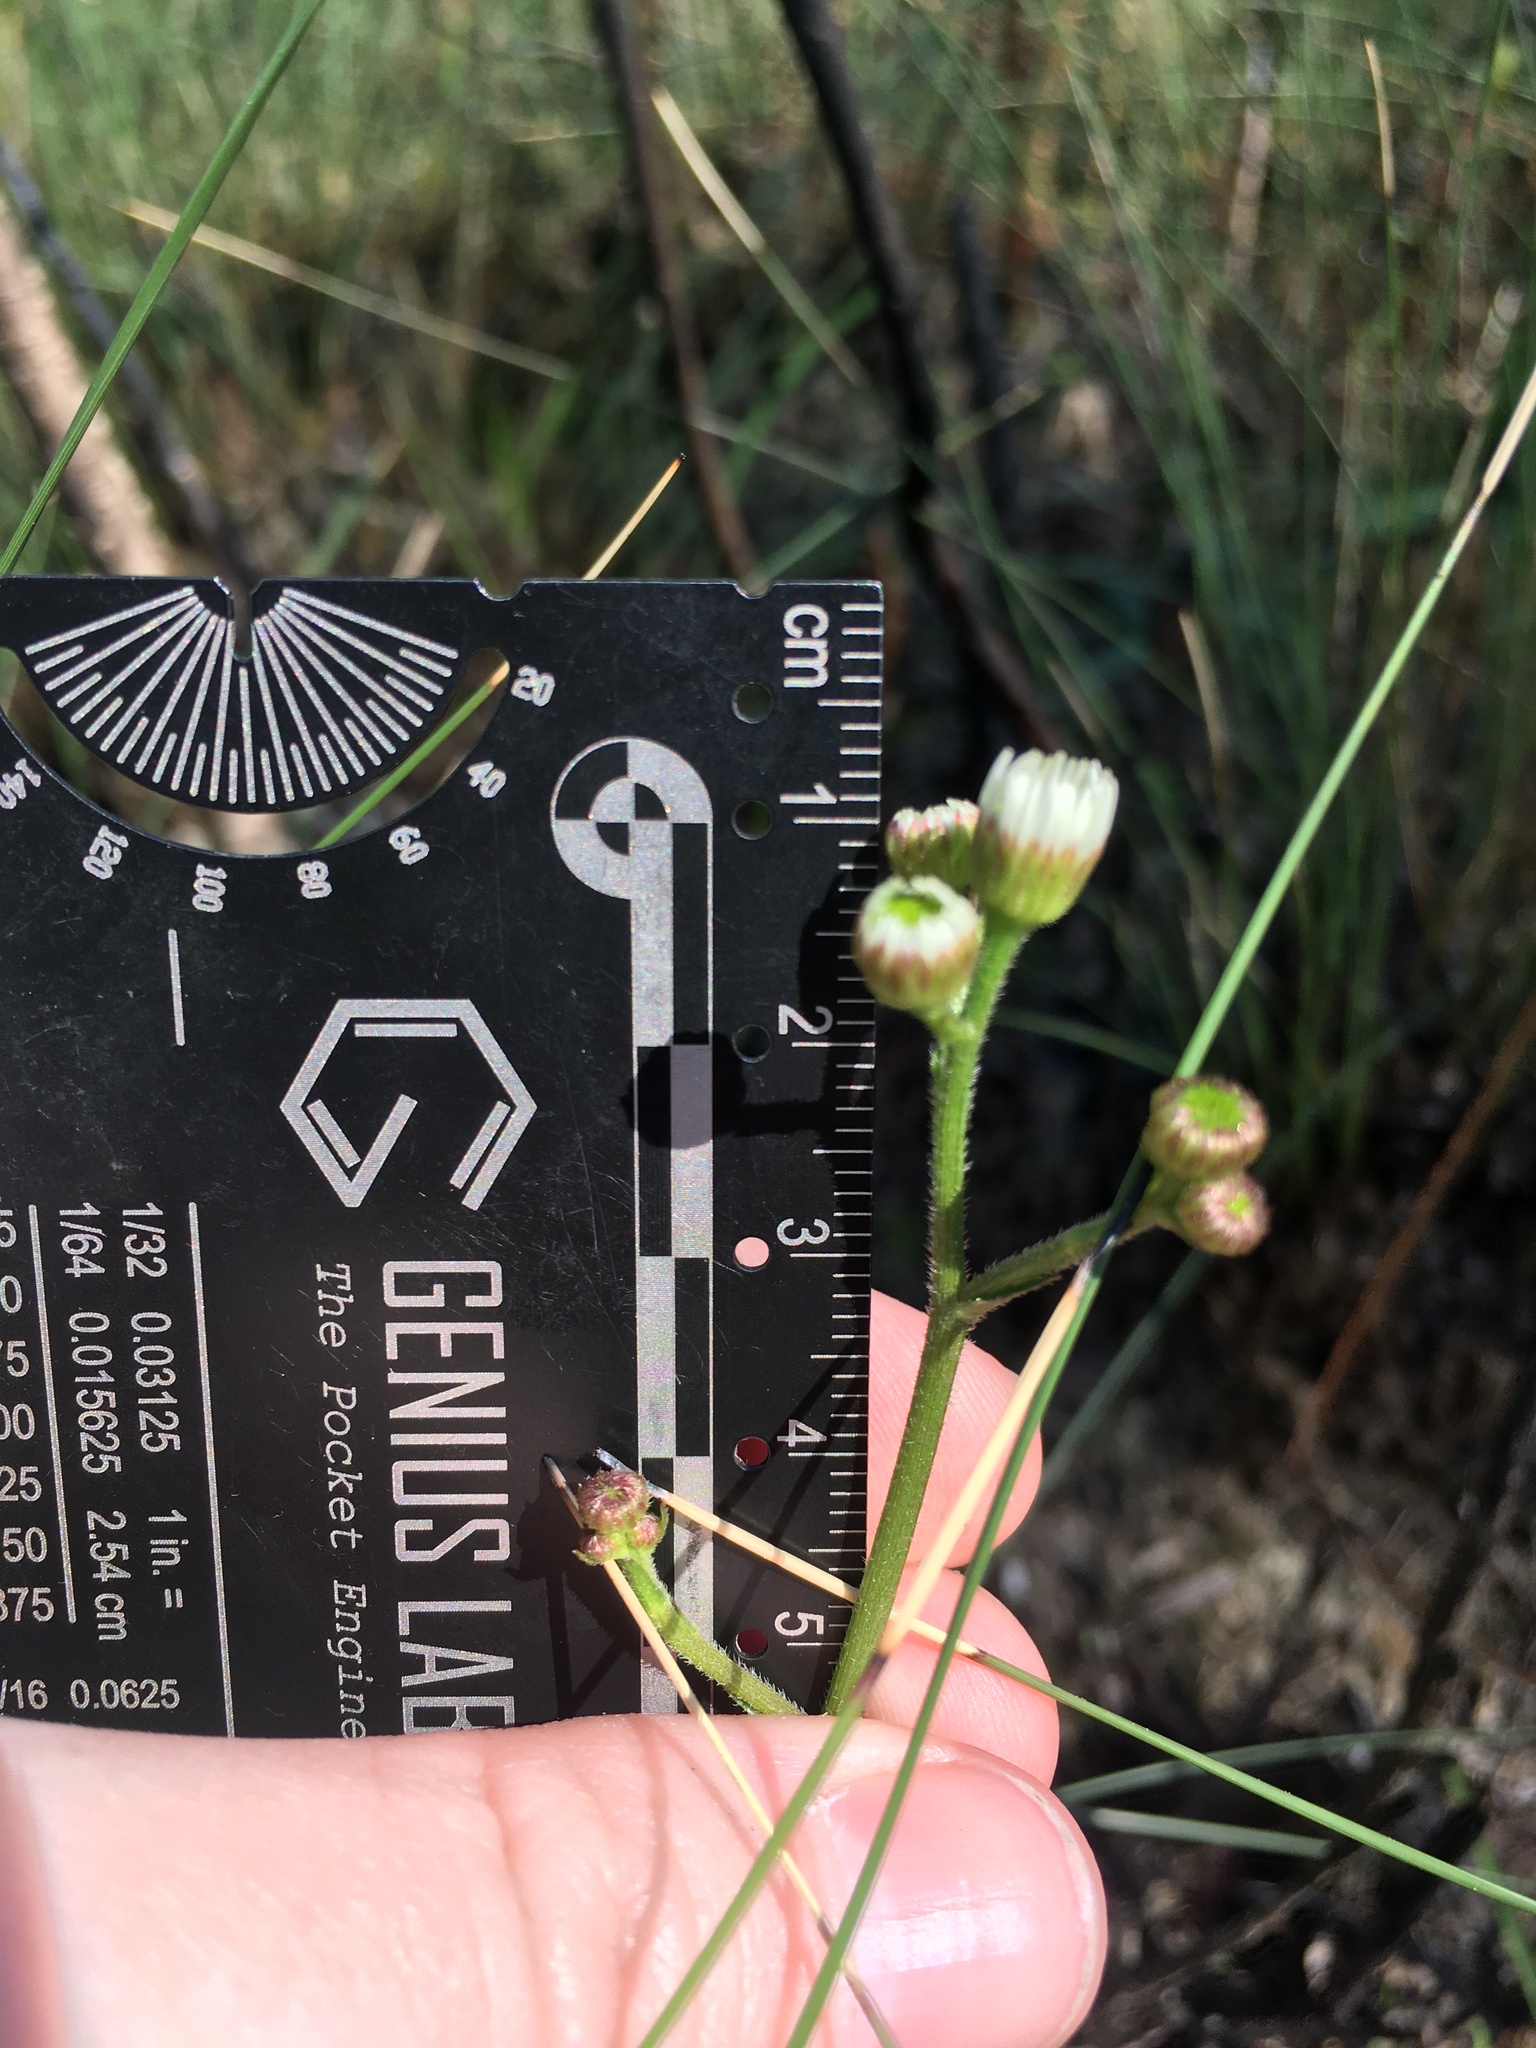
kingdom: Plantae
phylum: Tracheophyta
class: Magnoliopsida
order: Asterales
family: Asteraceae
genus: Erigeron
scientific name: Erigeron vernus
